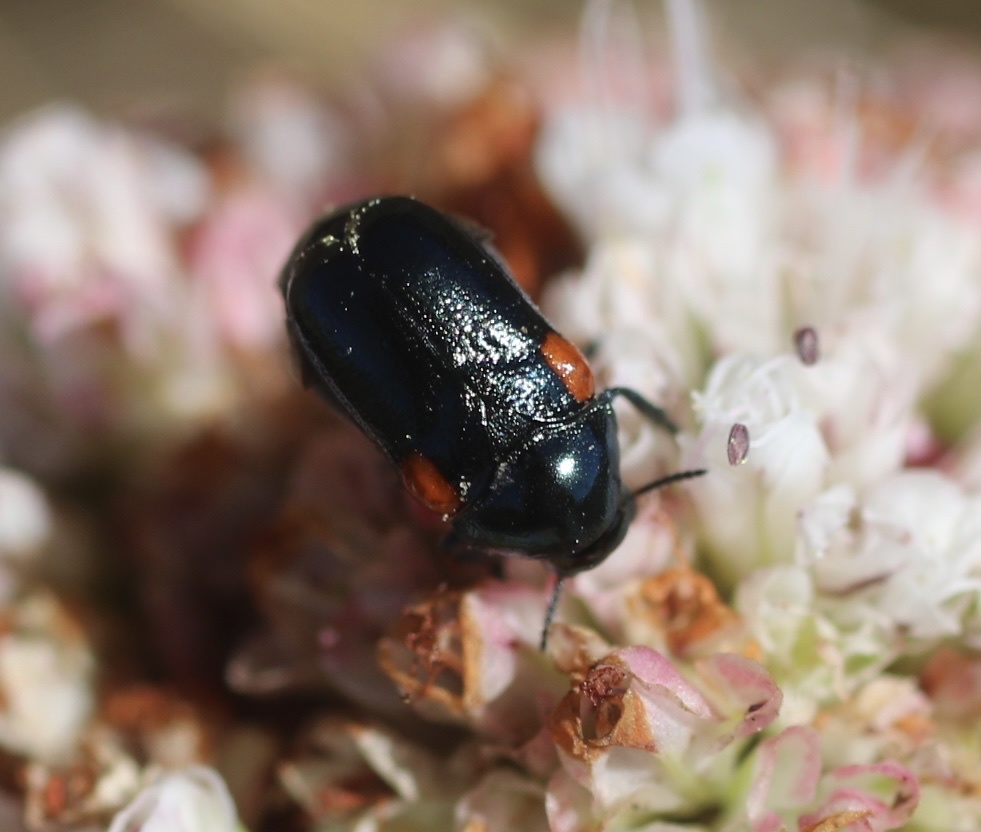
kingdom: Animalia
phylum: Arthropoda
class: Insecta
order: Coleoptera
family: Chrysomelidae
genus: Saxinis
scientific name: Saxinis saucia
